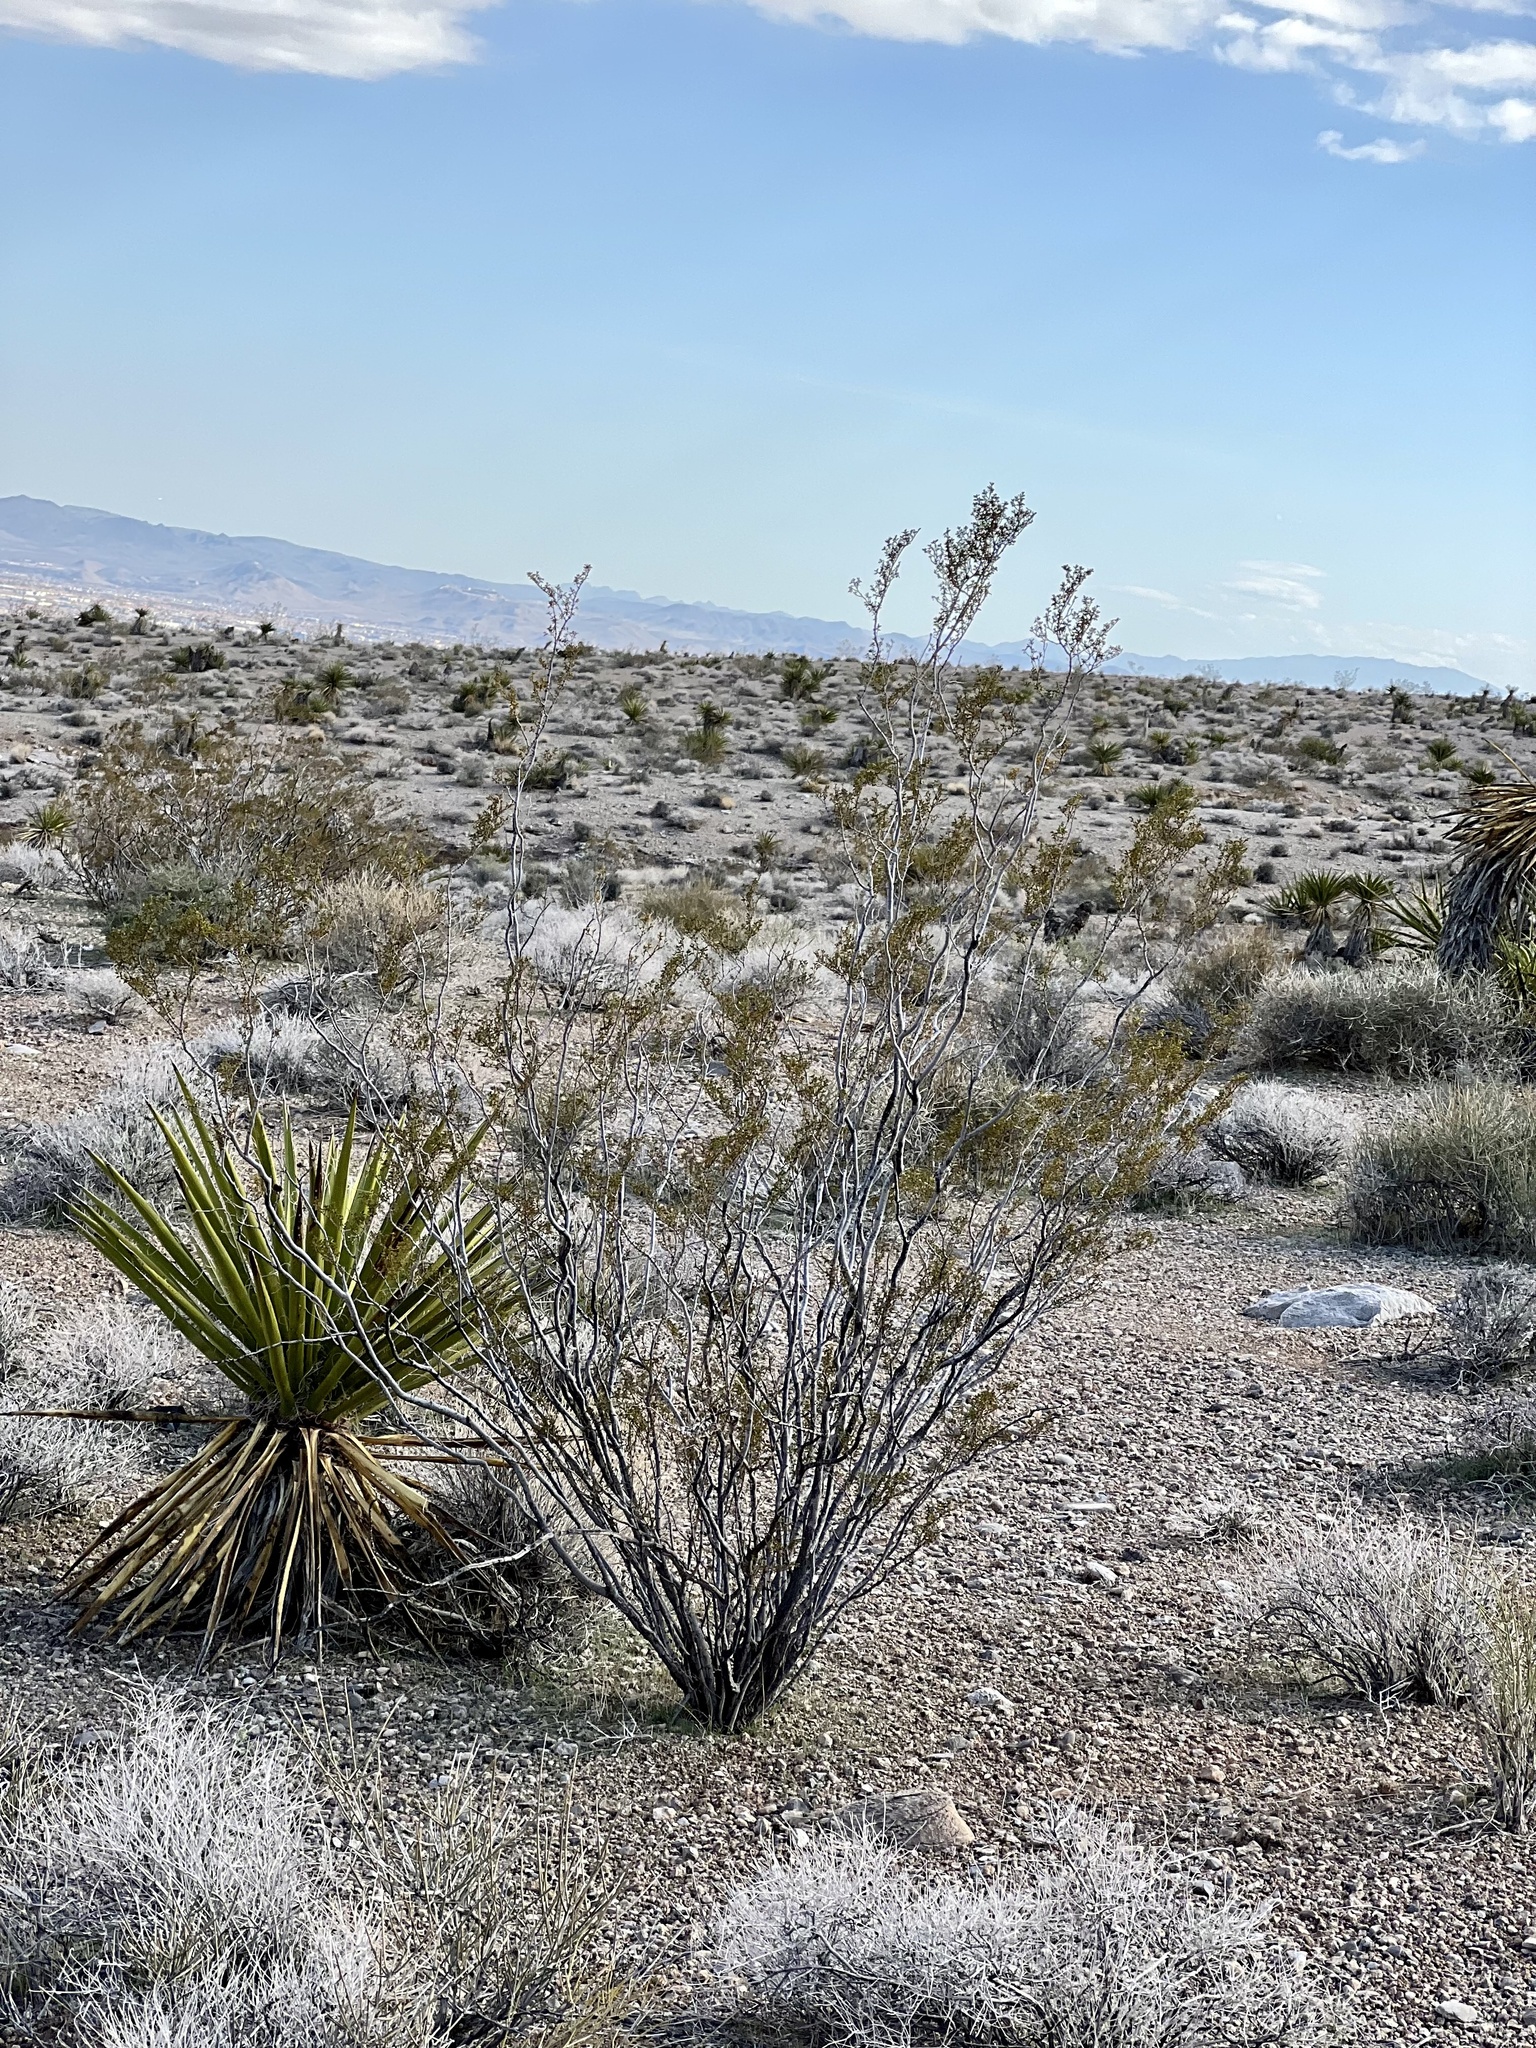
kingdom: Plantae
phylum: Tracheophyta
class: Magnoliopsida
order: Zygophyllales
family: Zygophyllaceae
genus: Larrea
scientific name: Larrea tridentata
